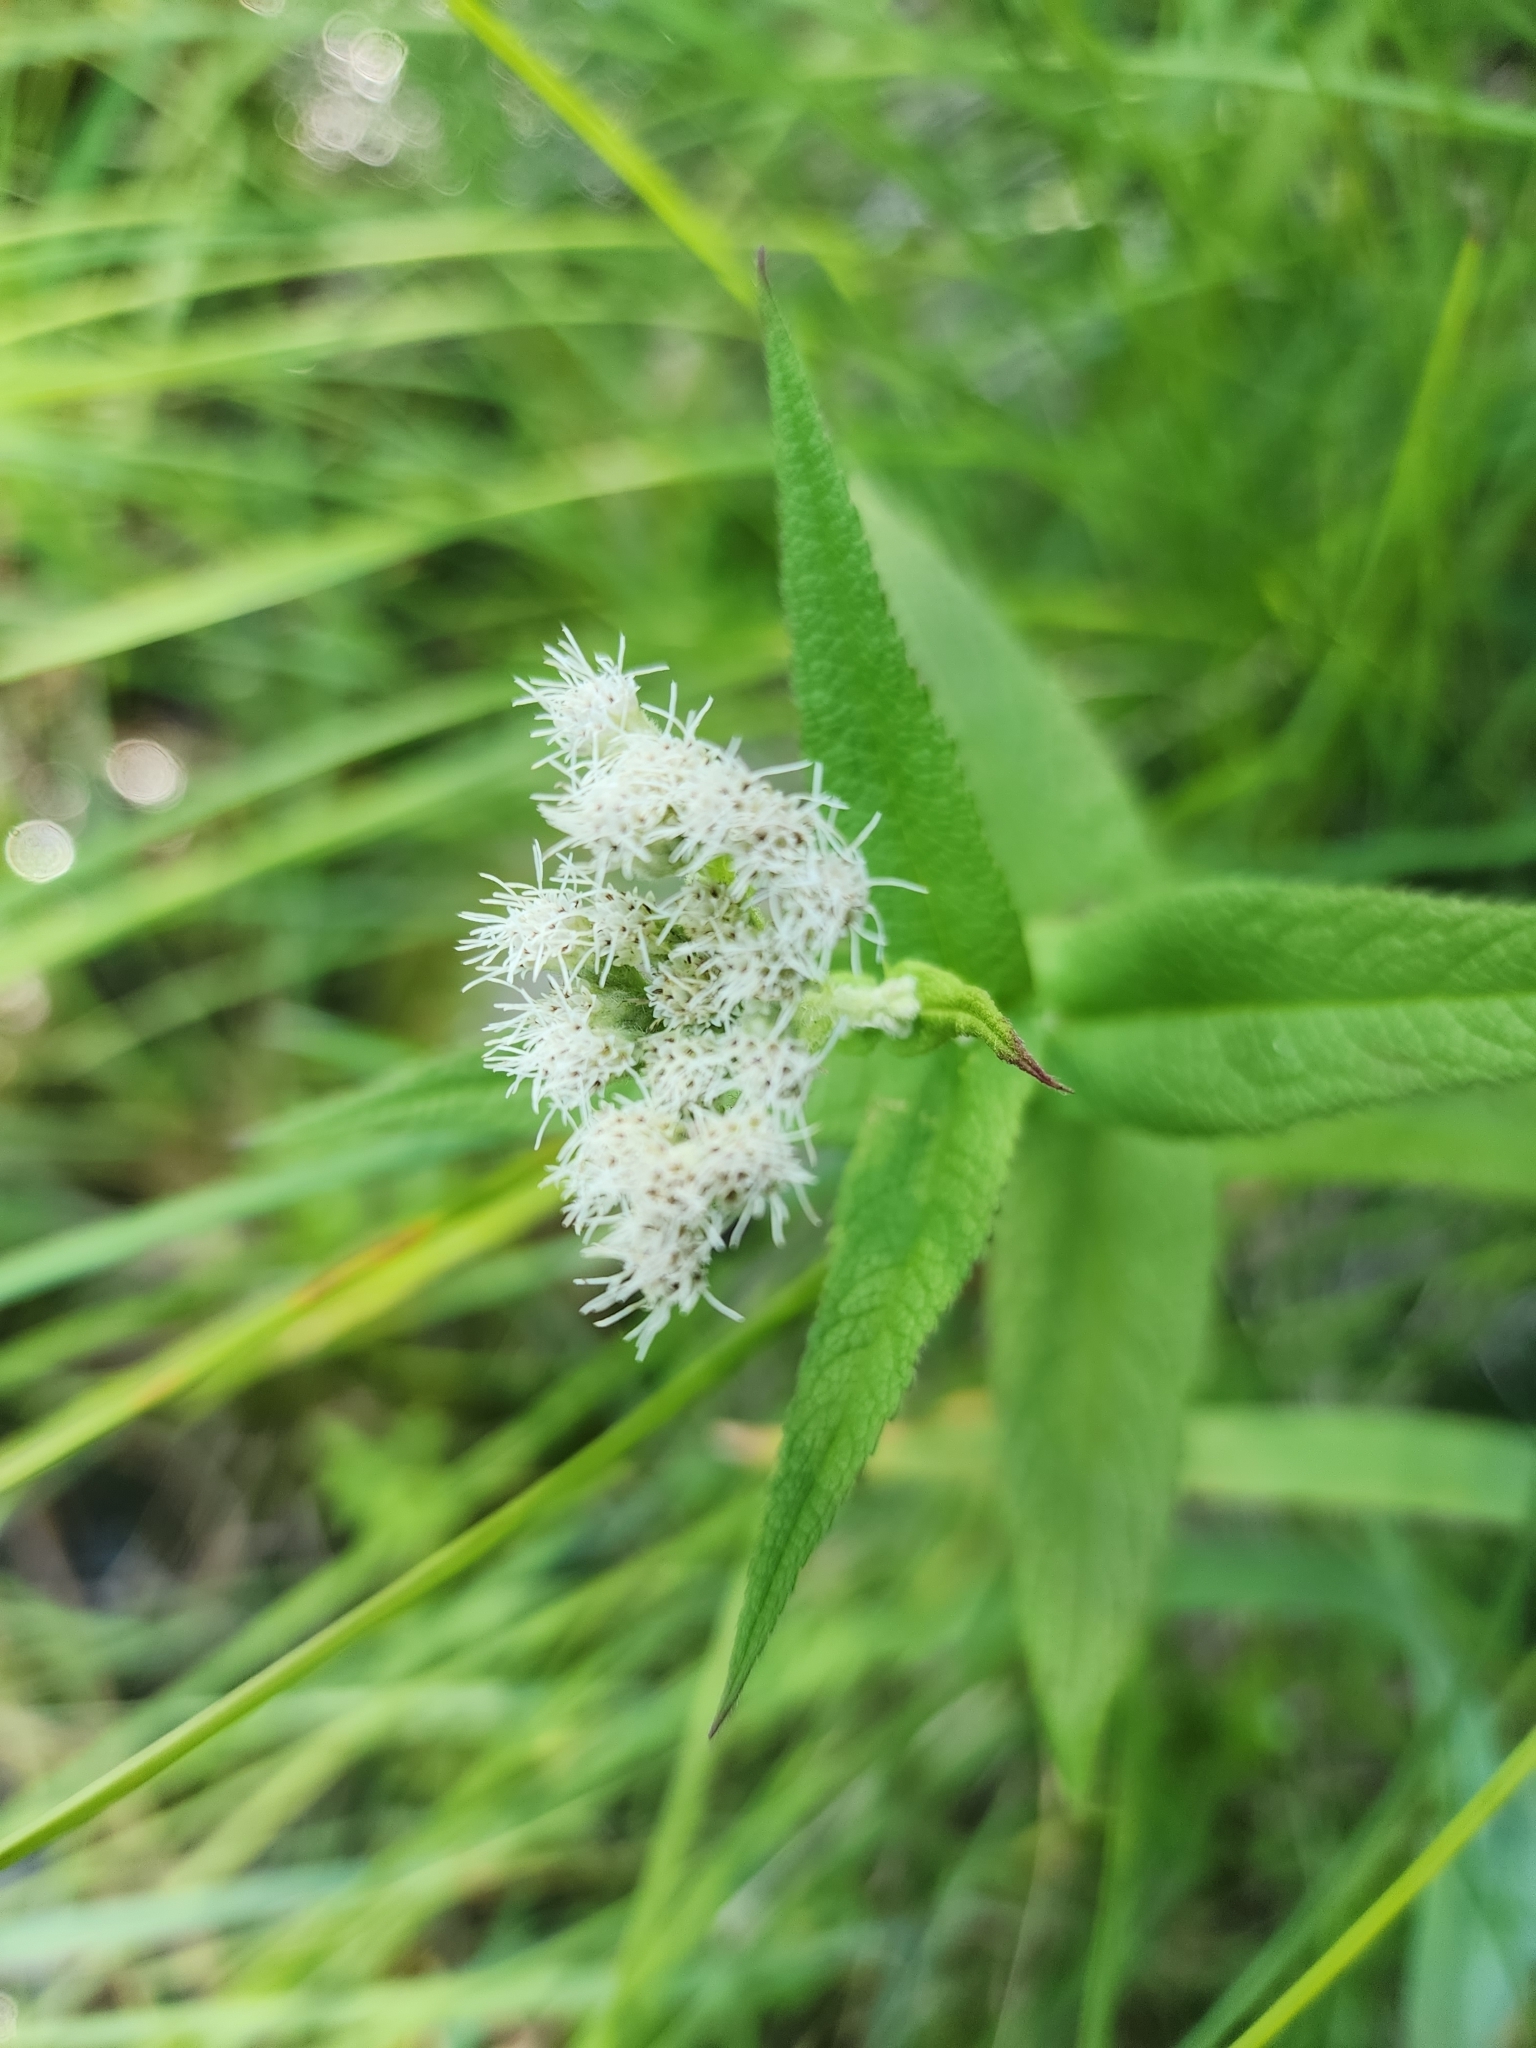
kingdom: Plantae
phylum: Tracheophyta
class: Magnoliopsida
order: Asterales
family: Asteraceae
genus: Eupatorium
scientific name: Eupatorium perfoliatum
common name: Boneset
